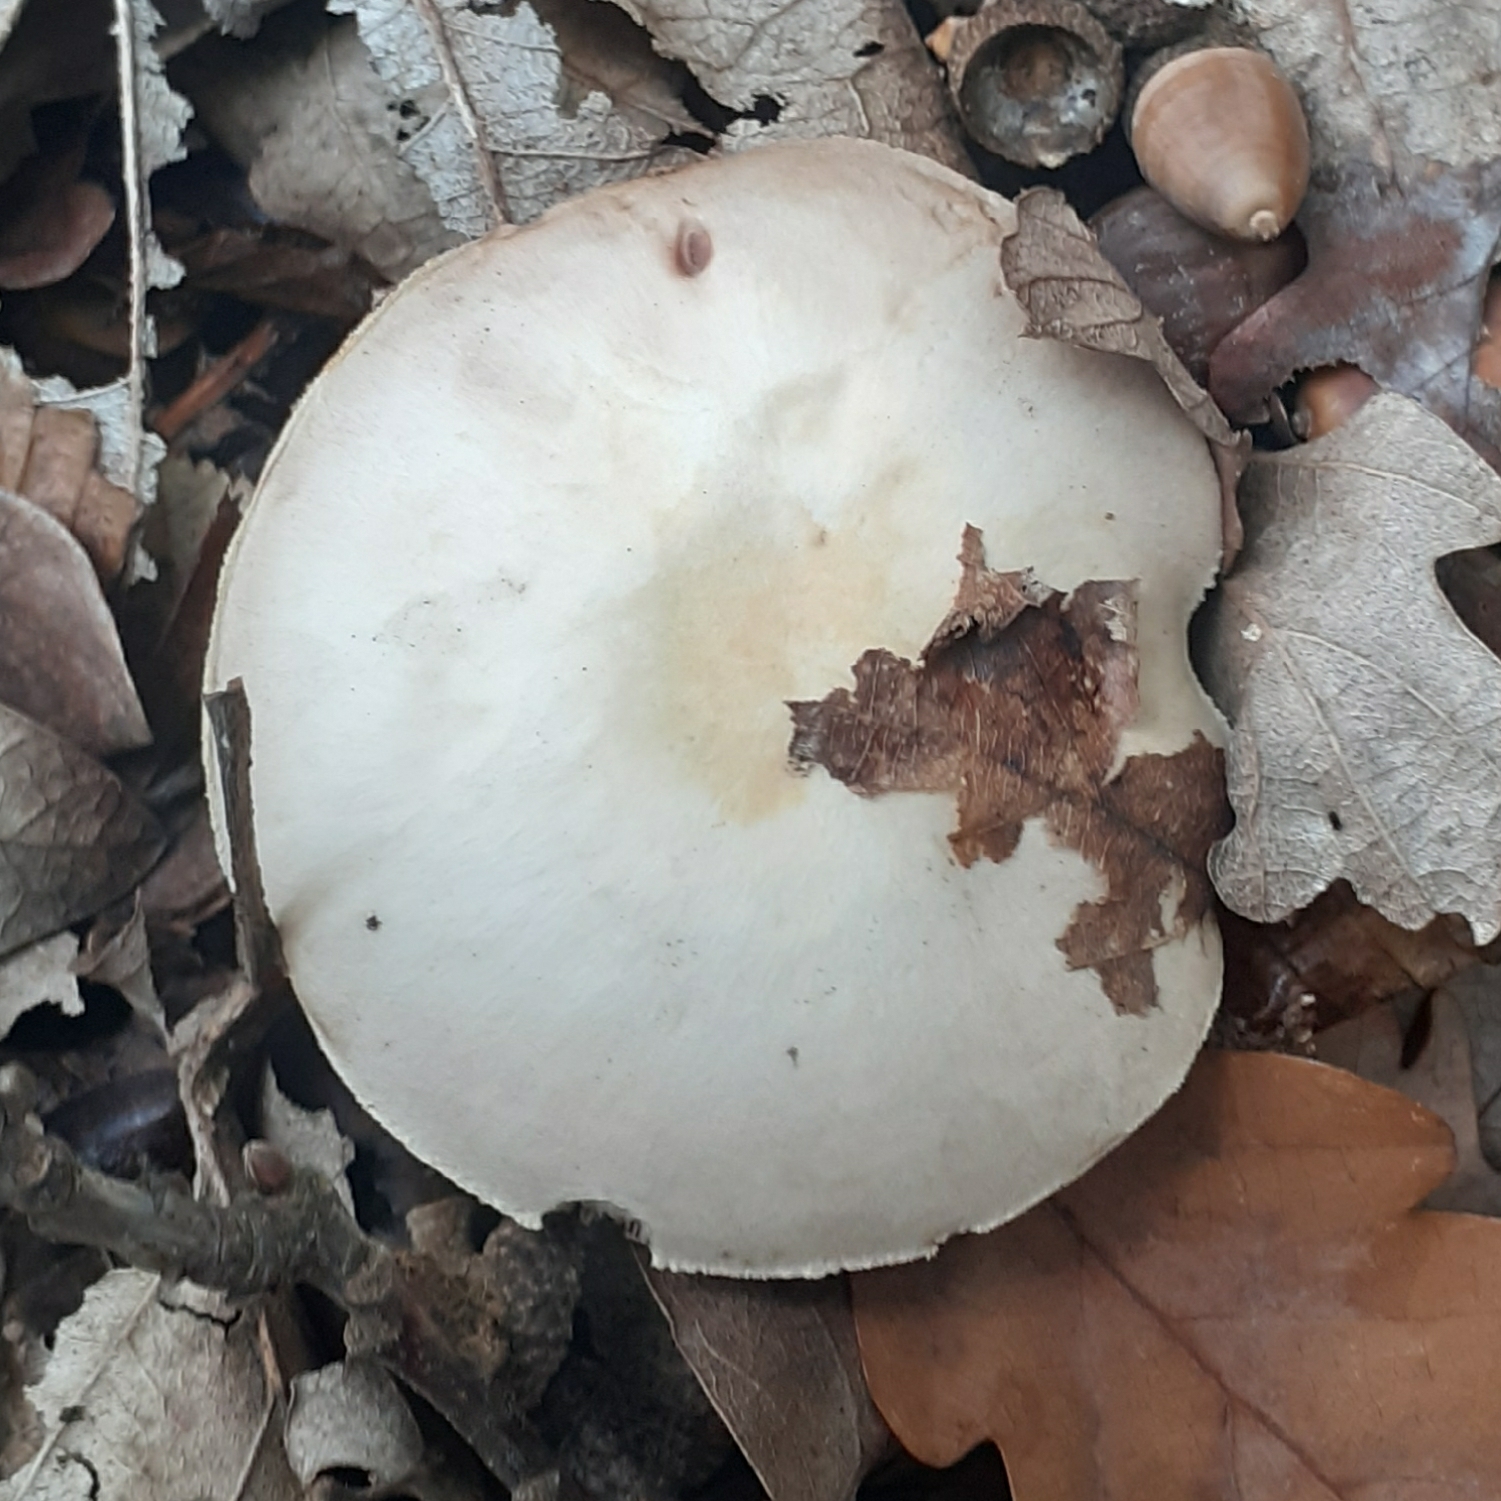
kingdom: Fungi
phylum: Basidiomycota
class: Agaricomycetes
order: Agaricales
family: Agaricaceae
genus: Agaricus
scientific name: Agaricus sylvicola
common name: Wood mushroom
